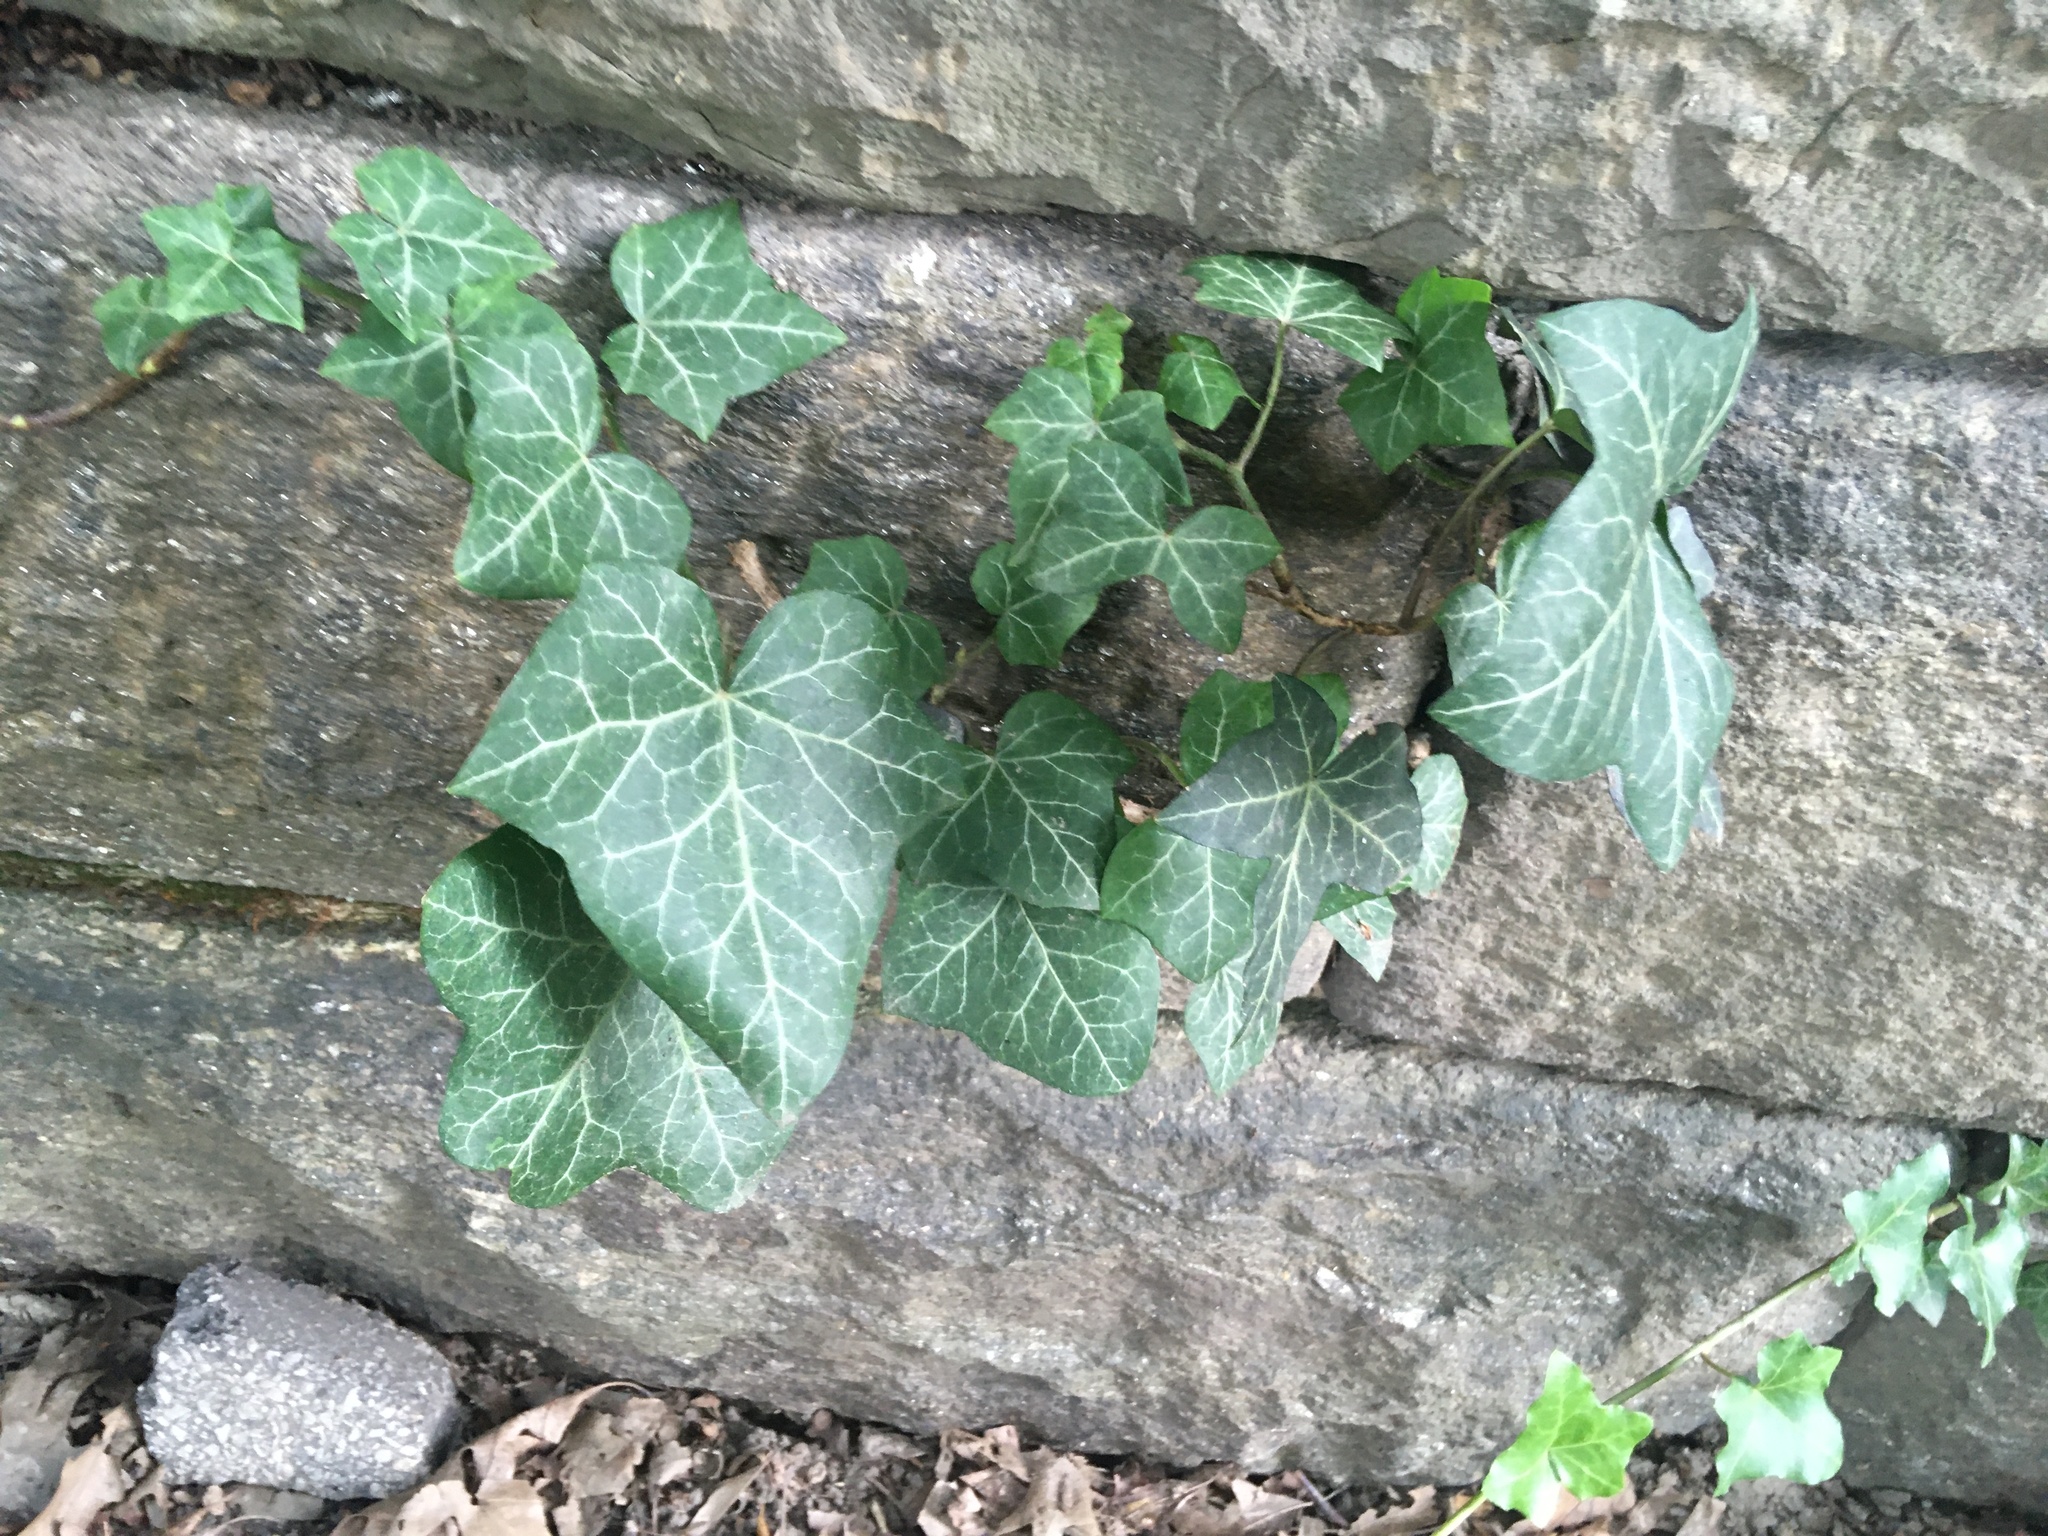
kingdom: Plantae
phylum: Tracheophyta
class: Magnoliopsida
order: Apiales
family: Araliaceae
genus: Hedera
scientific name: Hedera helix
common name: Ivy
